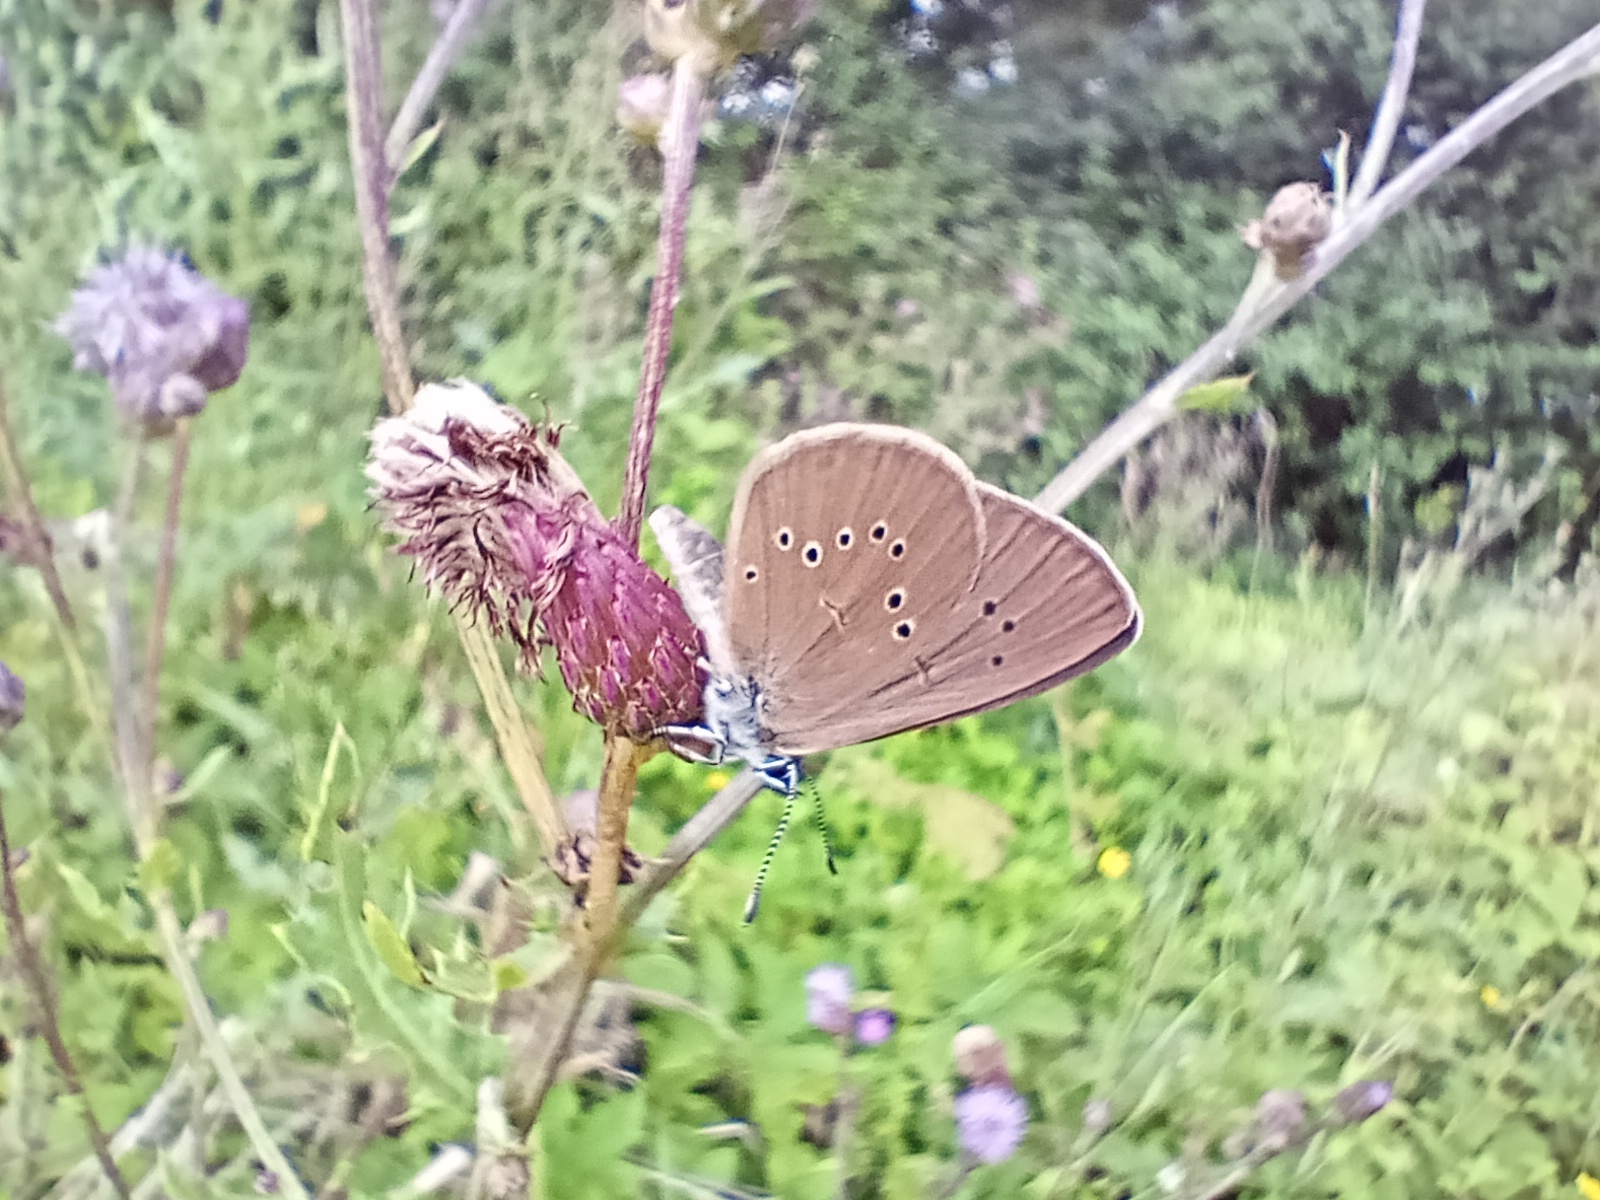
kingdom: Animalia
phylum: Arthropoda
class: Insecta
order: Lepidoptera
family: Lycaenidae
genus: Maculinea
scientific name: Maculinea nausithous
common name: Dusky large blue
